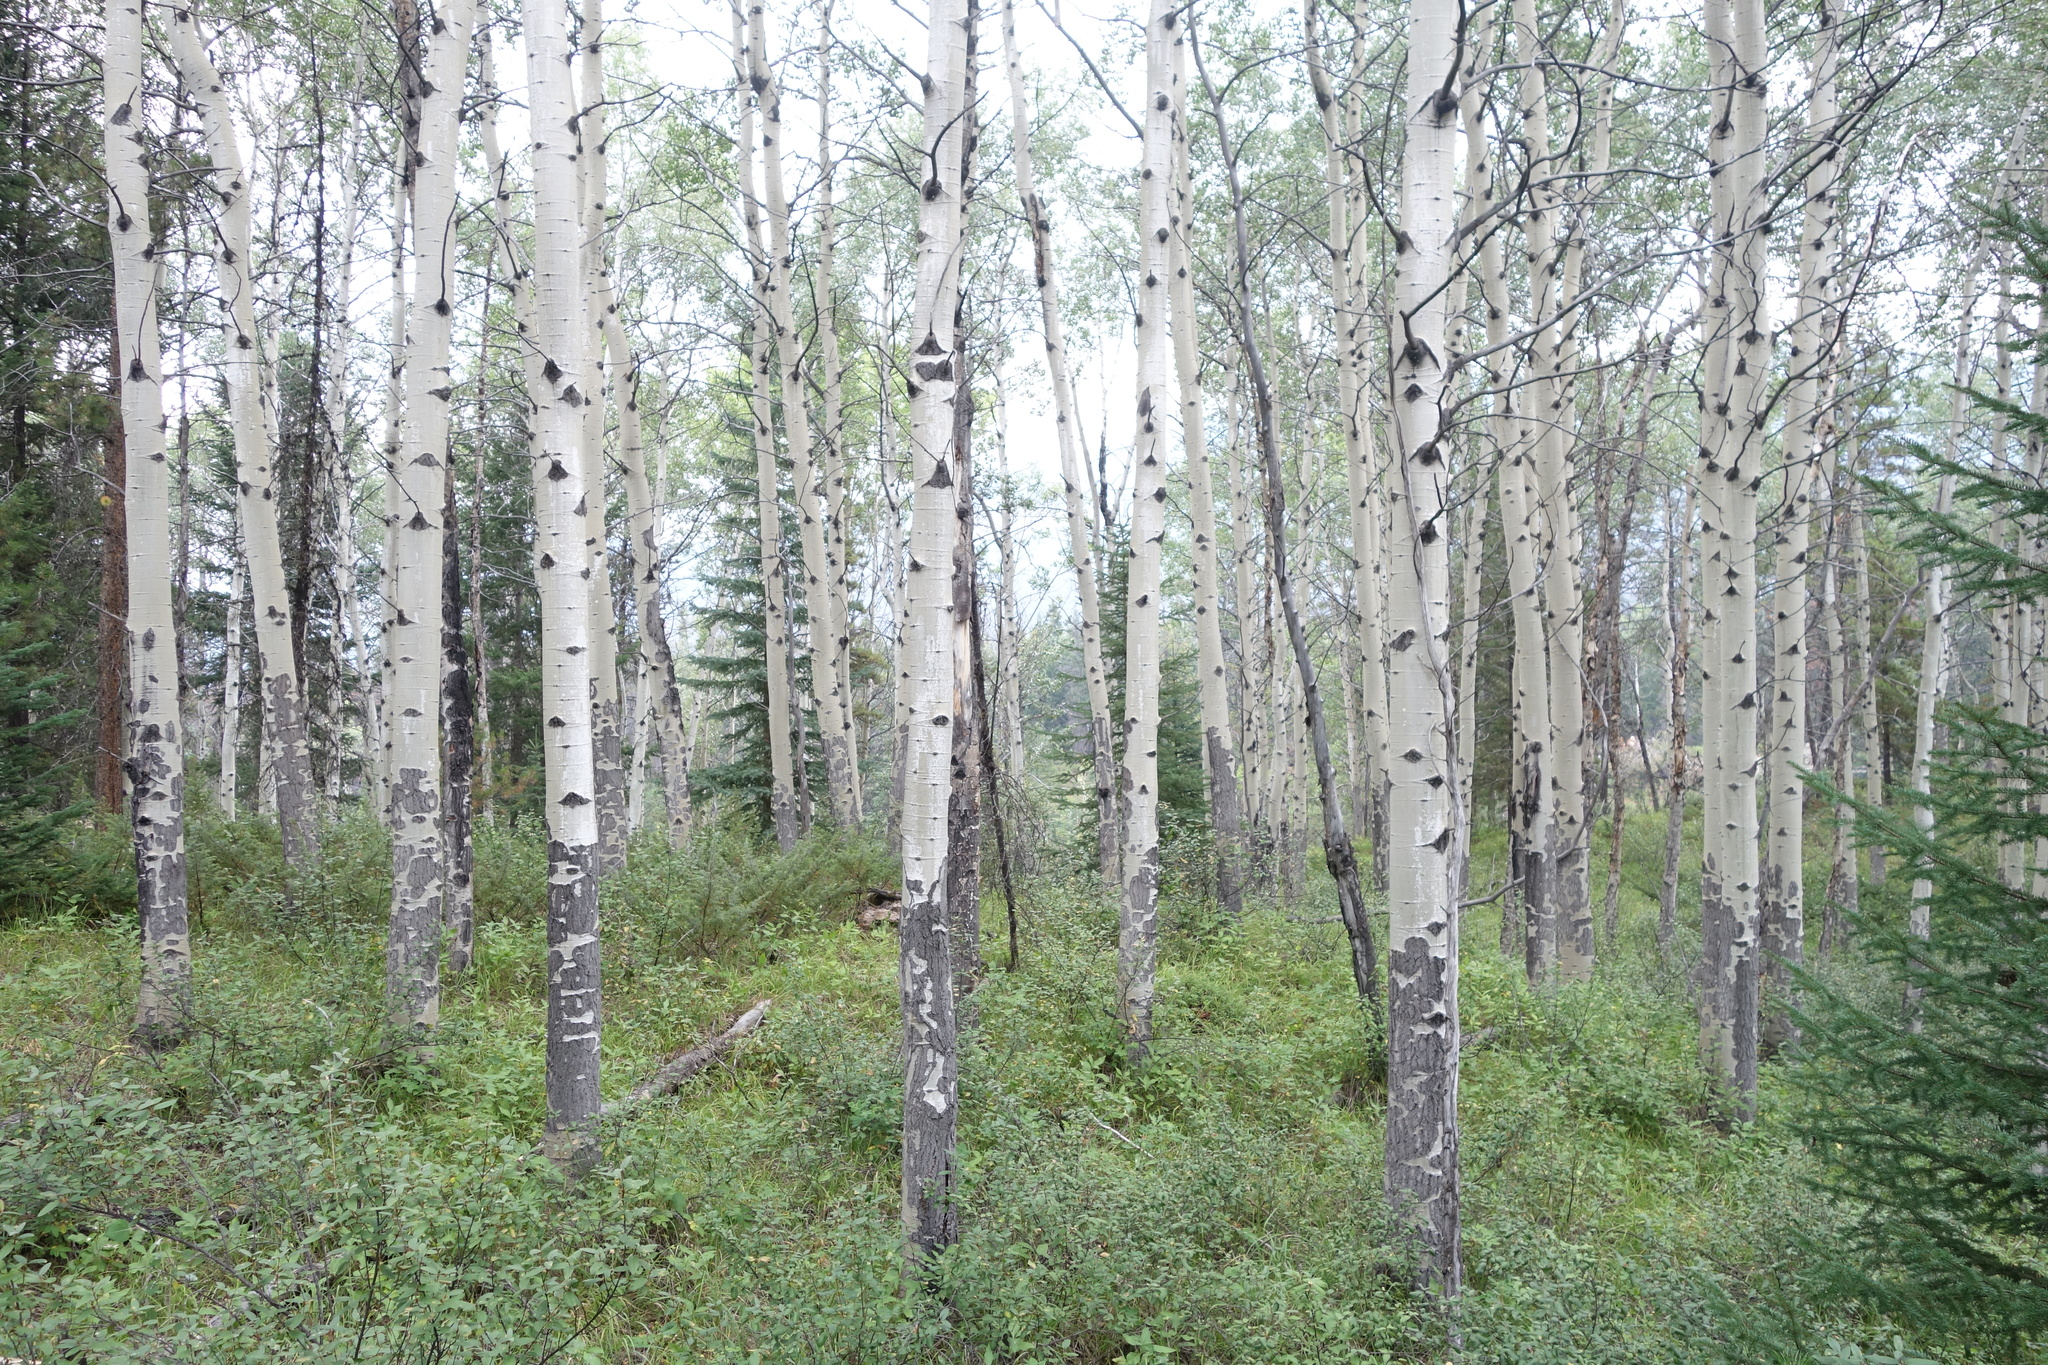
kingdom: Plantae
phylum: Tracheophyta
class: Magnoliopsida
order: Malpighiales
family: Salicaceae
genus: Populus
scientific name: Populus tremuloides
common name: Quaking aspen
